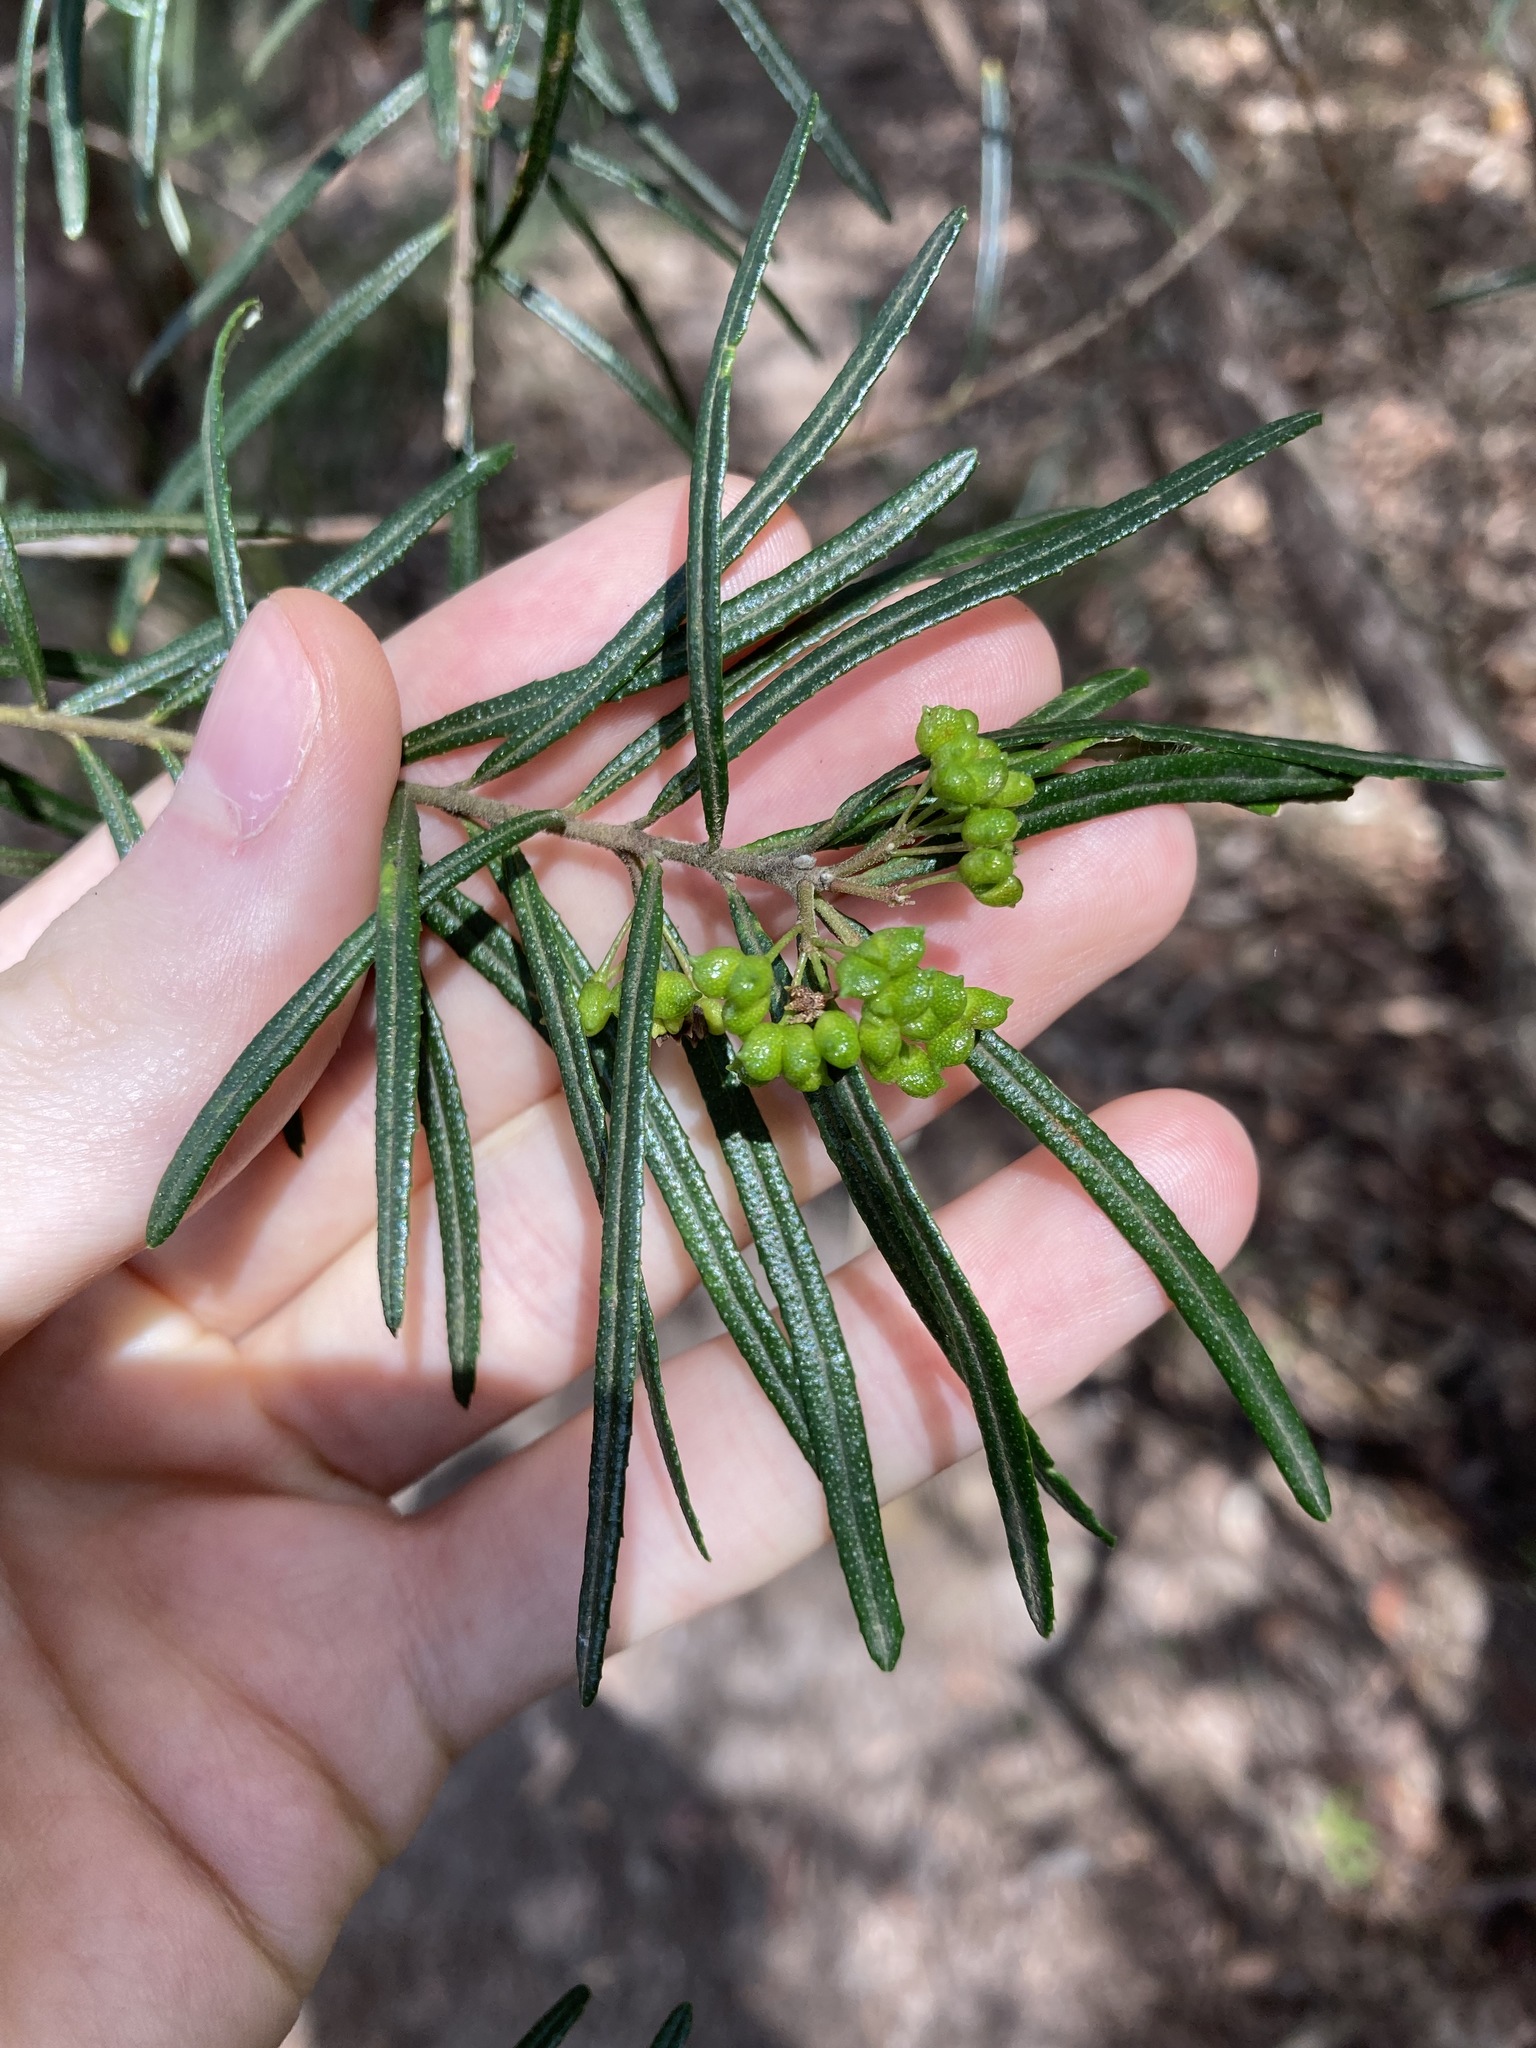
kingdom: Plantae
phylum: Tracheophyta
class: Magnoliopsida
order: Sapindales
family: Rutaceae
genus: Leionema
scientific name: Leionema dentatum
